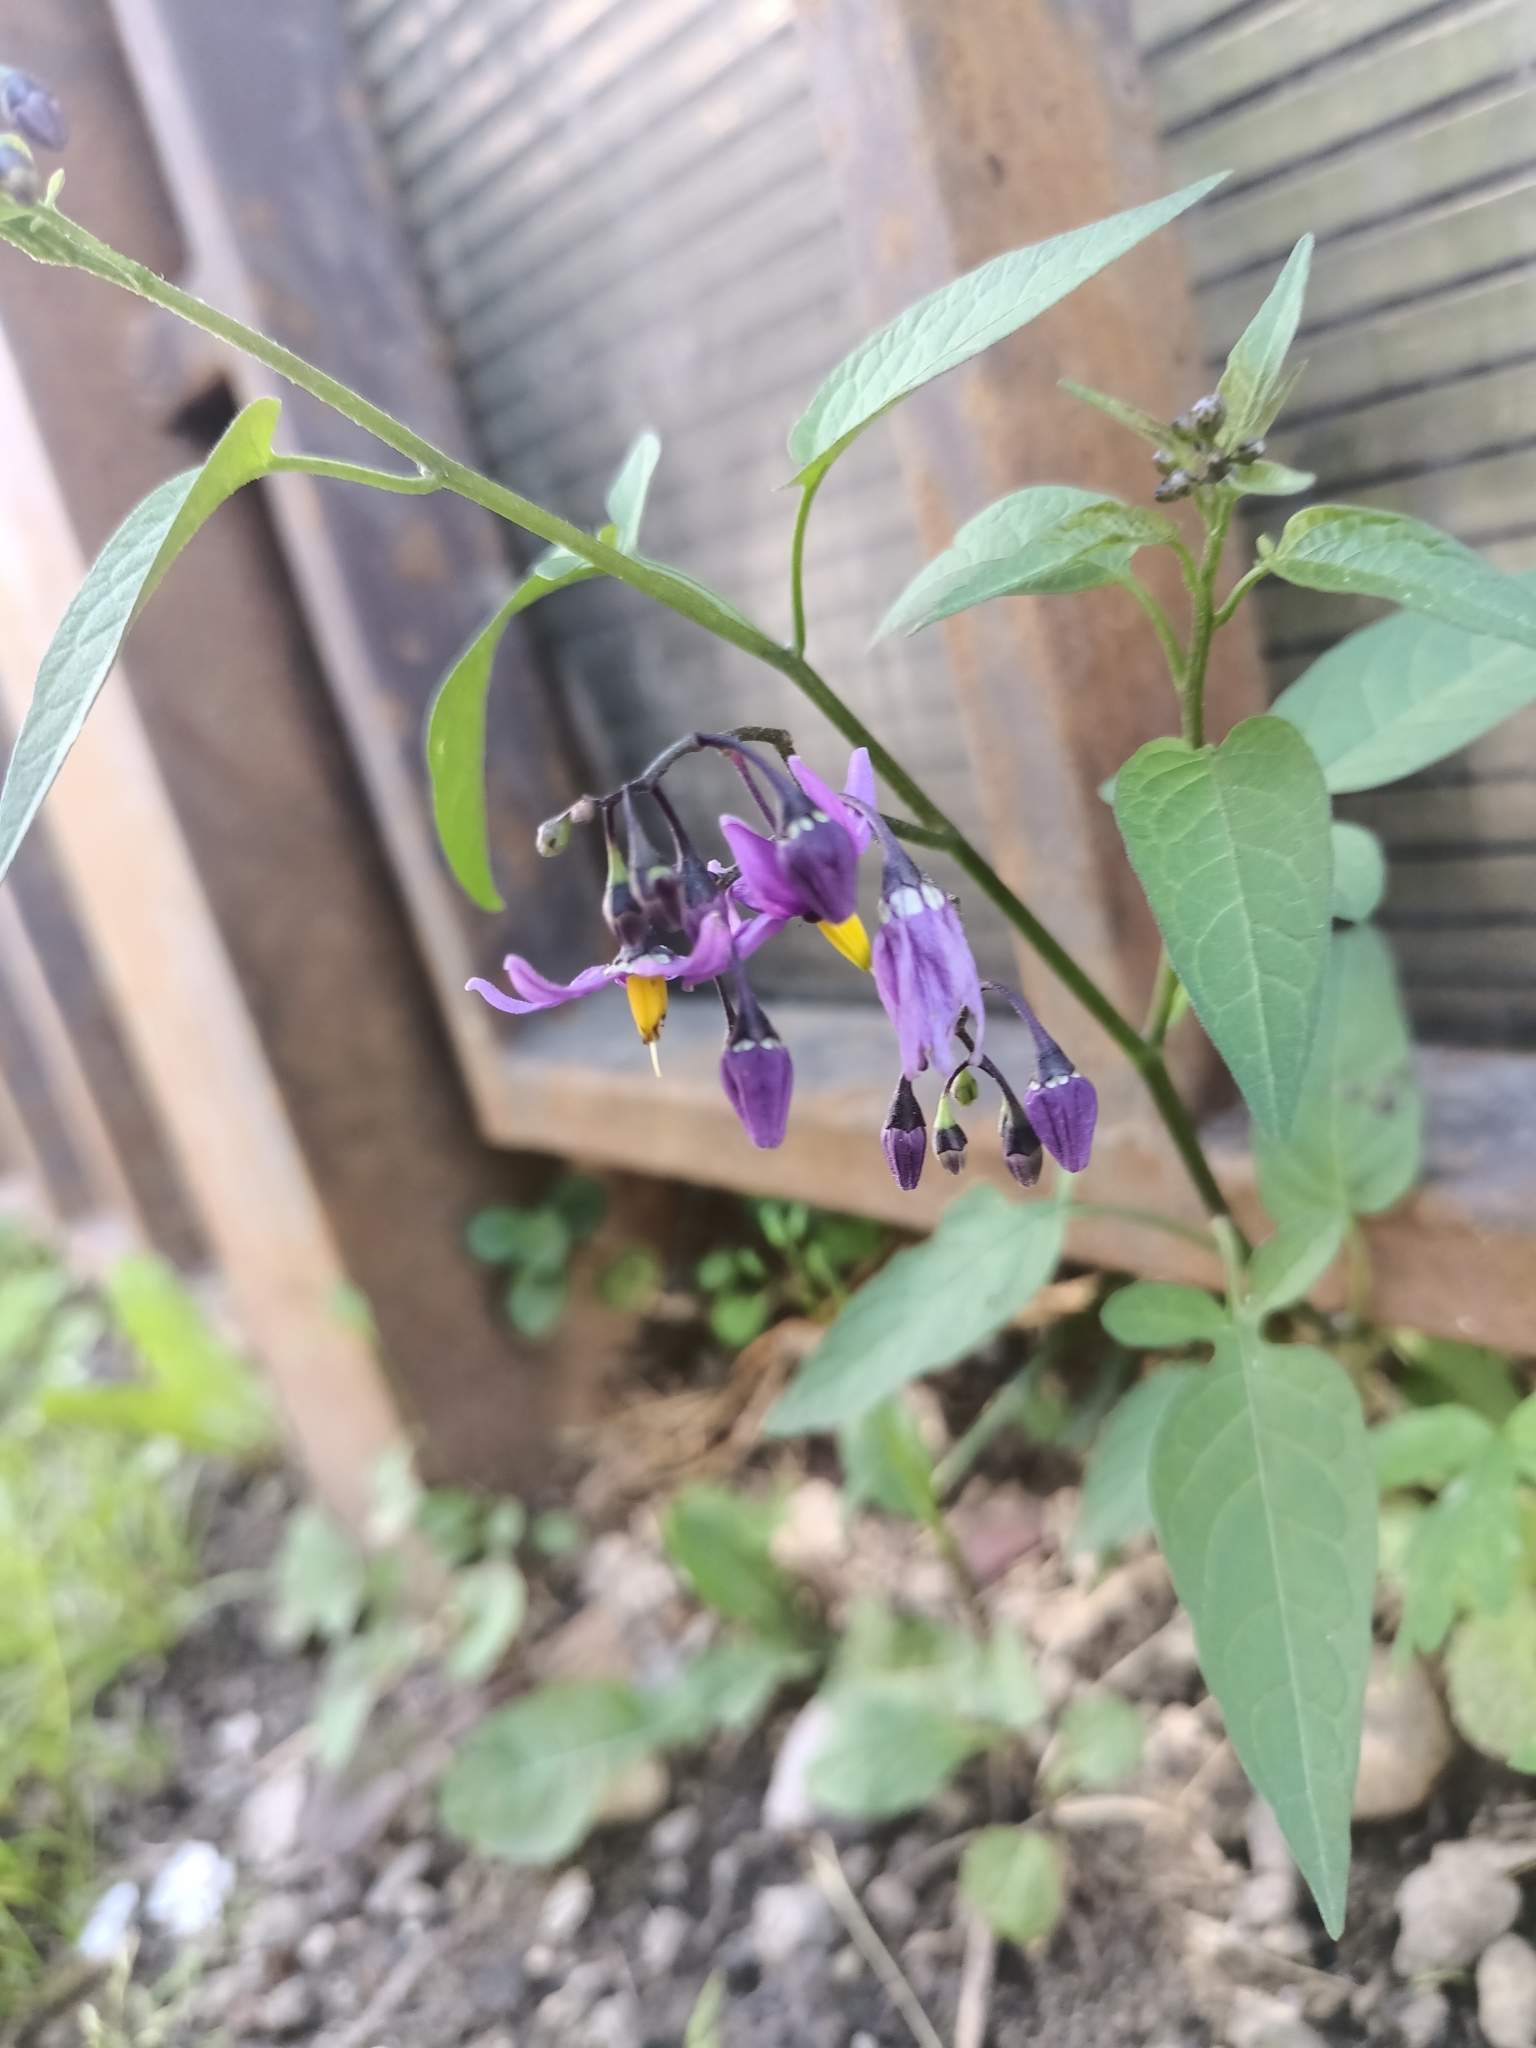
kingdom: Plantae
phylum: Tracheophyta
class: Magnoliopsida
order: Solanales
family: Solanaceae
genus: Solanum
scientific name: Solanum dulcamara
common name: Climbing nightshade
